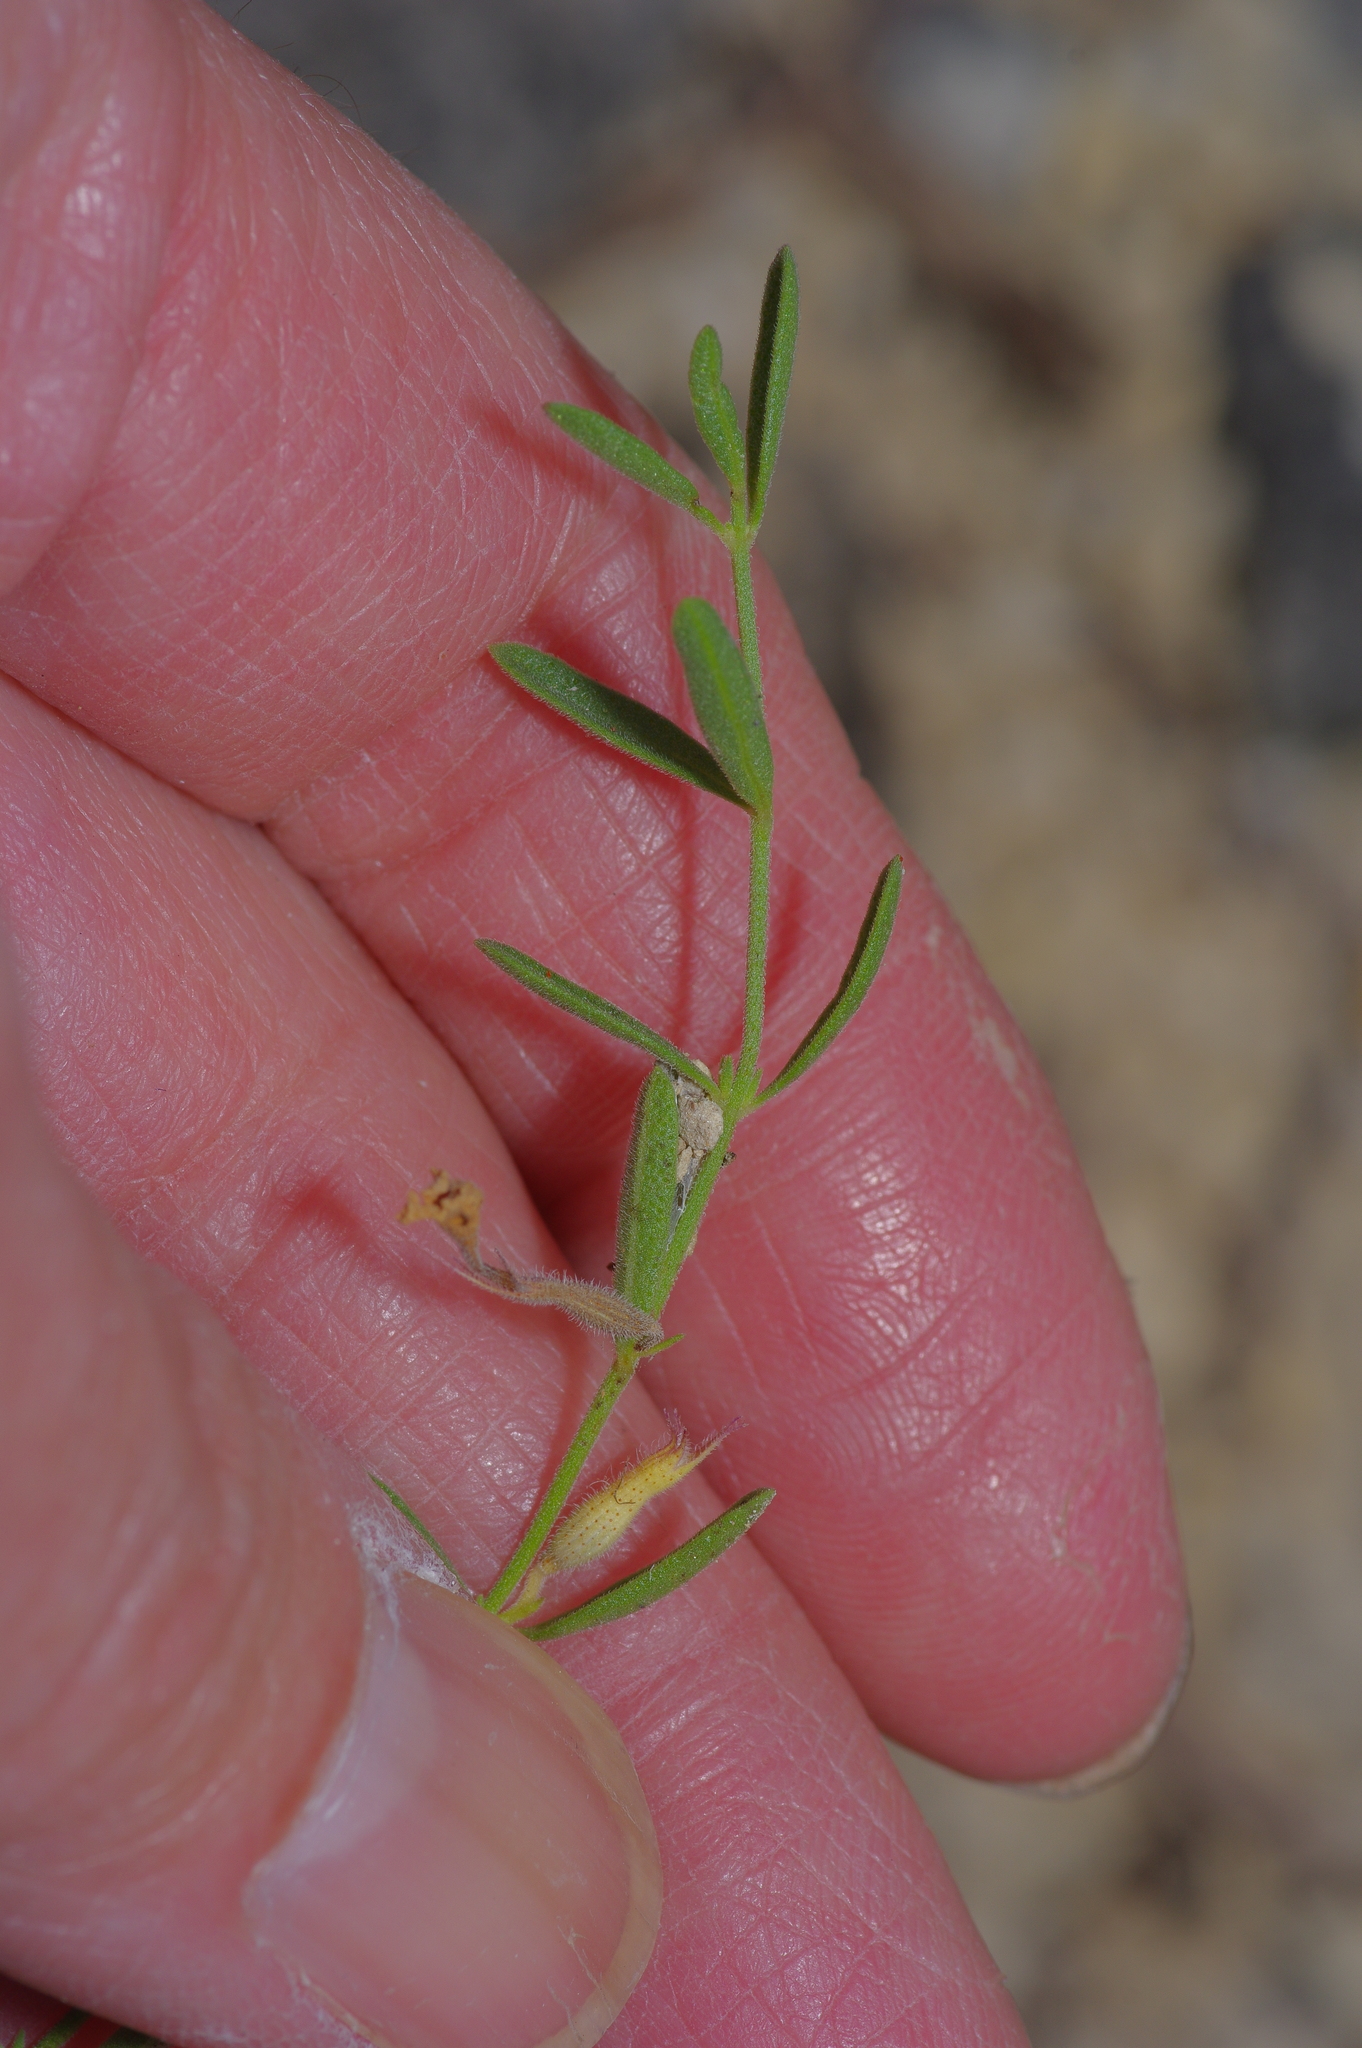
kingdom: Plantae
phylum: Tracheophyta
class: Magnoliopsida
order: Lamiales
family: Lamiaceae
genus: Hedeoma
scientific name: Hedeoma reverchonii
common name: Reverchon's false penny-royal
